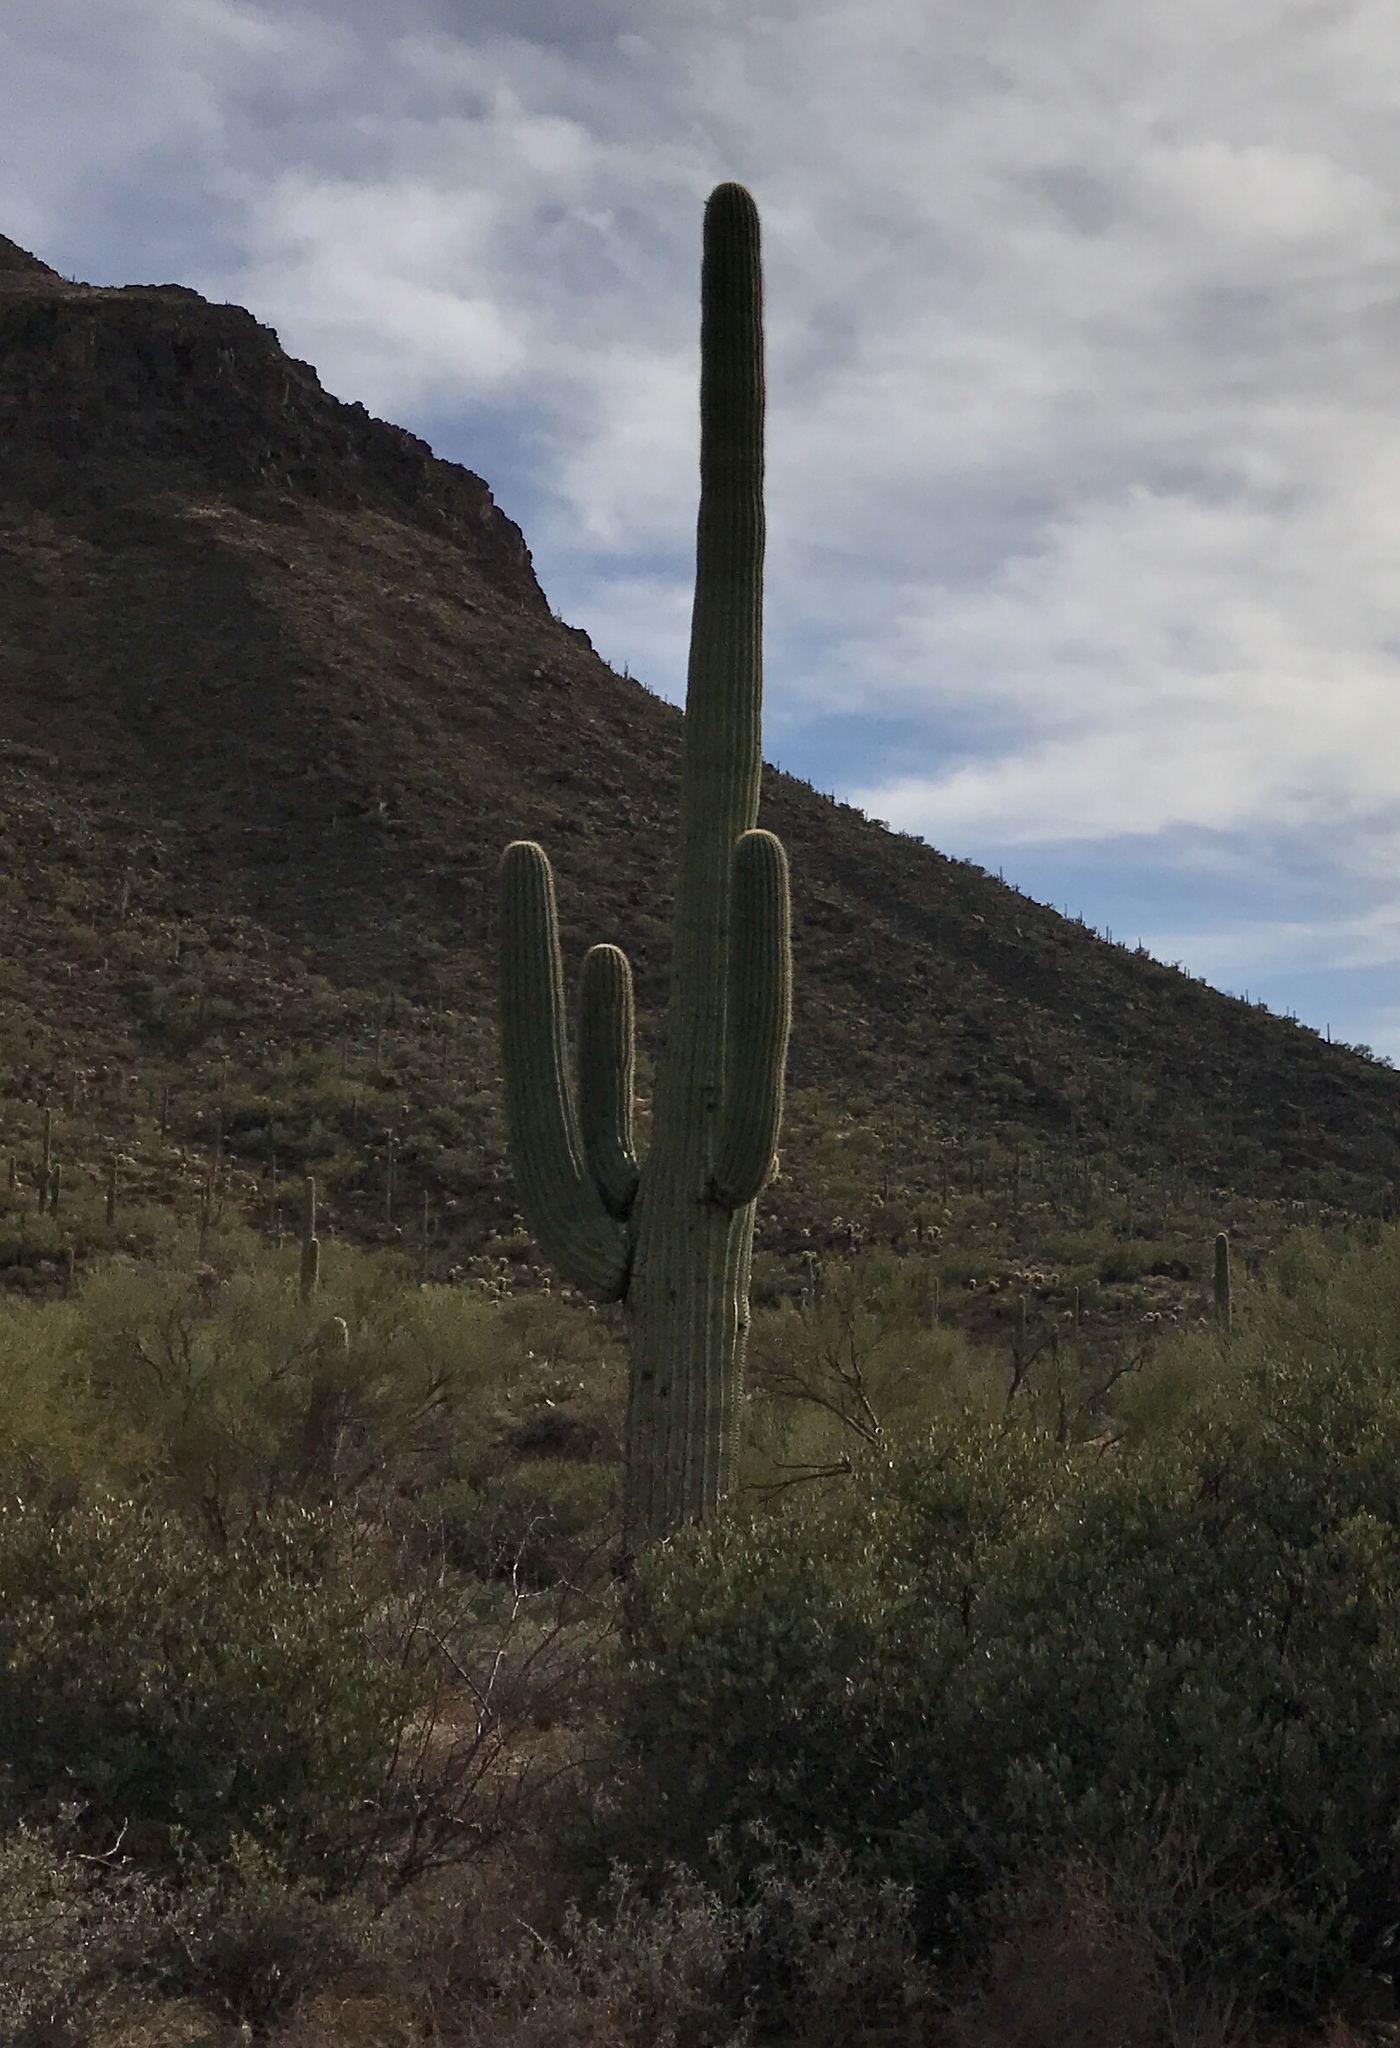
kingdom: Plantae
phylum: Tracheophyta
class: Magnoliopsida
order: Caryophyllales
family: Cactaceae
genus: Carnegiea
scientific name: Carnegiea gigantea
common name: Saguaro
